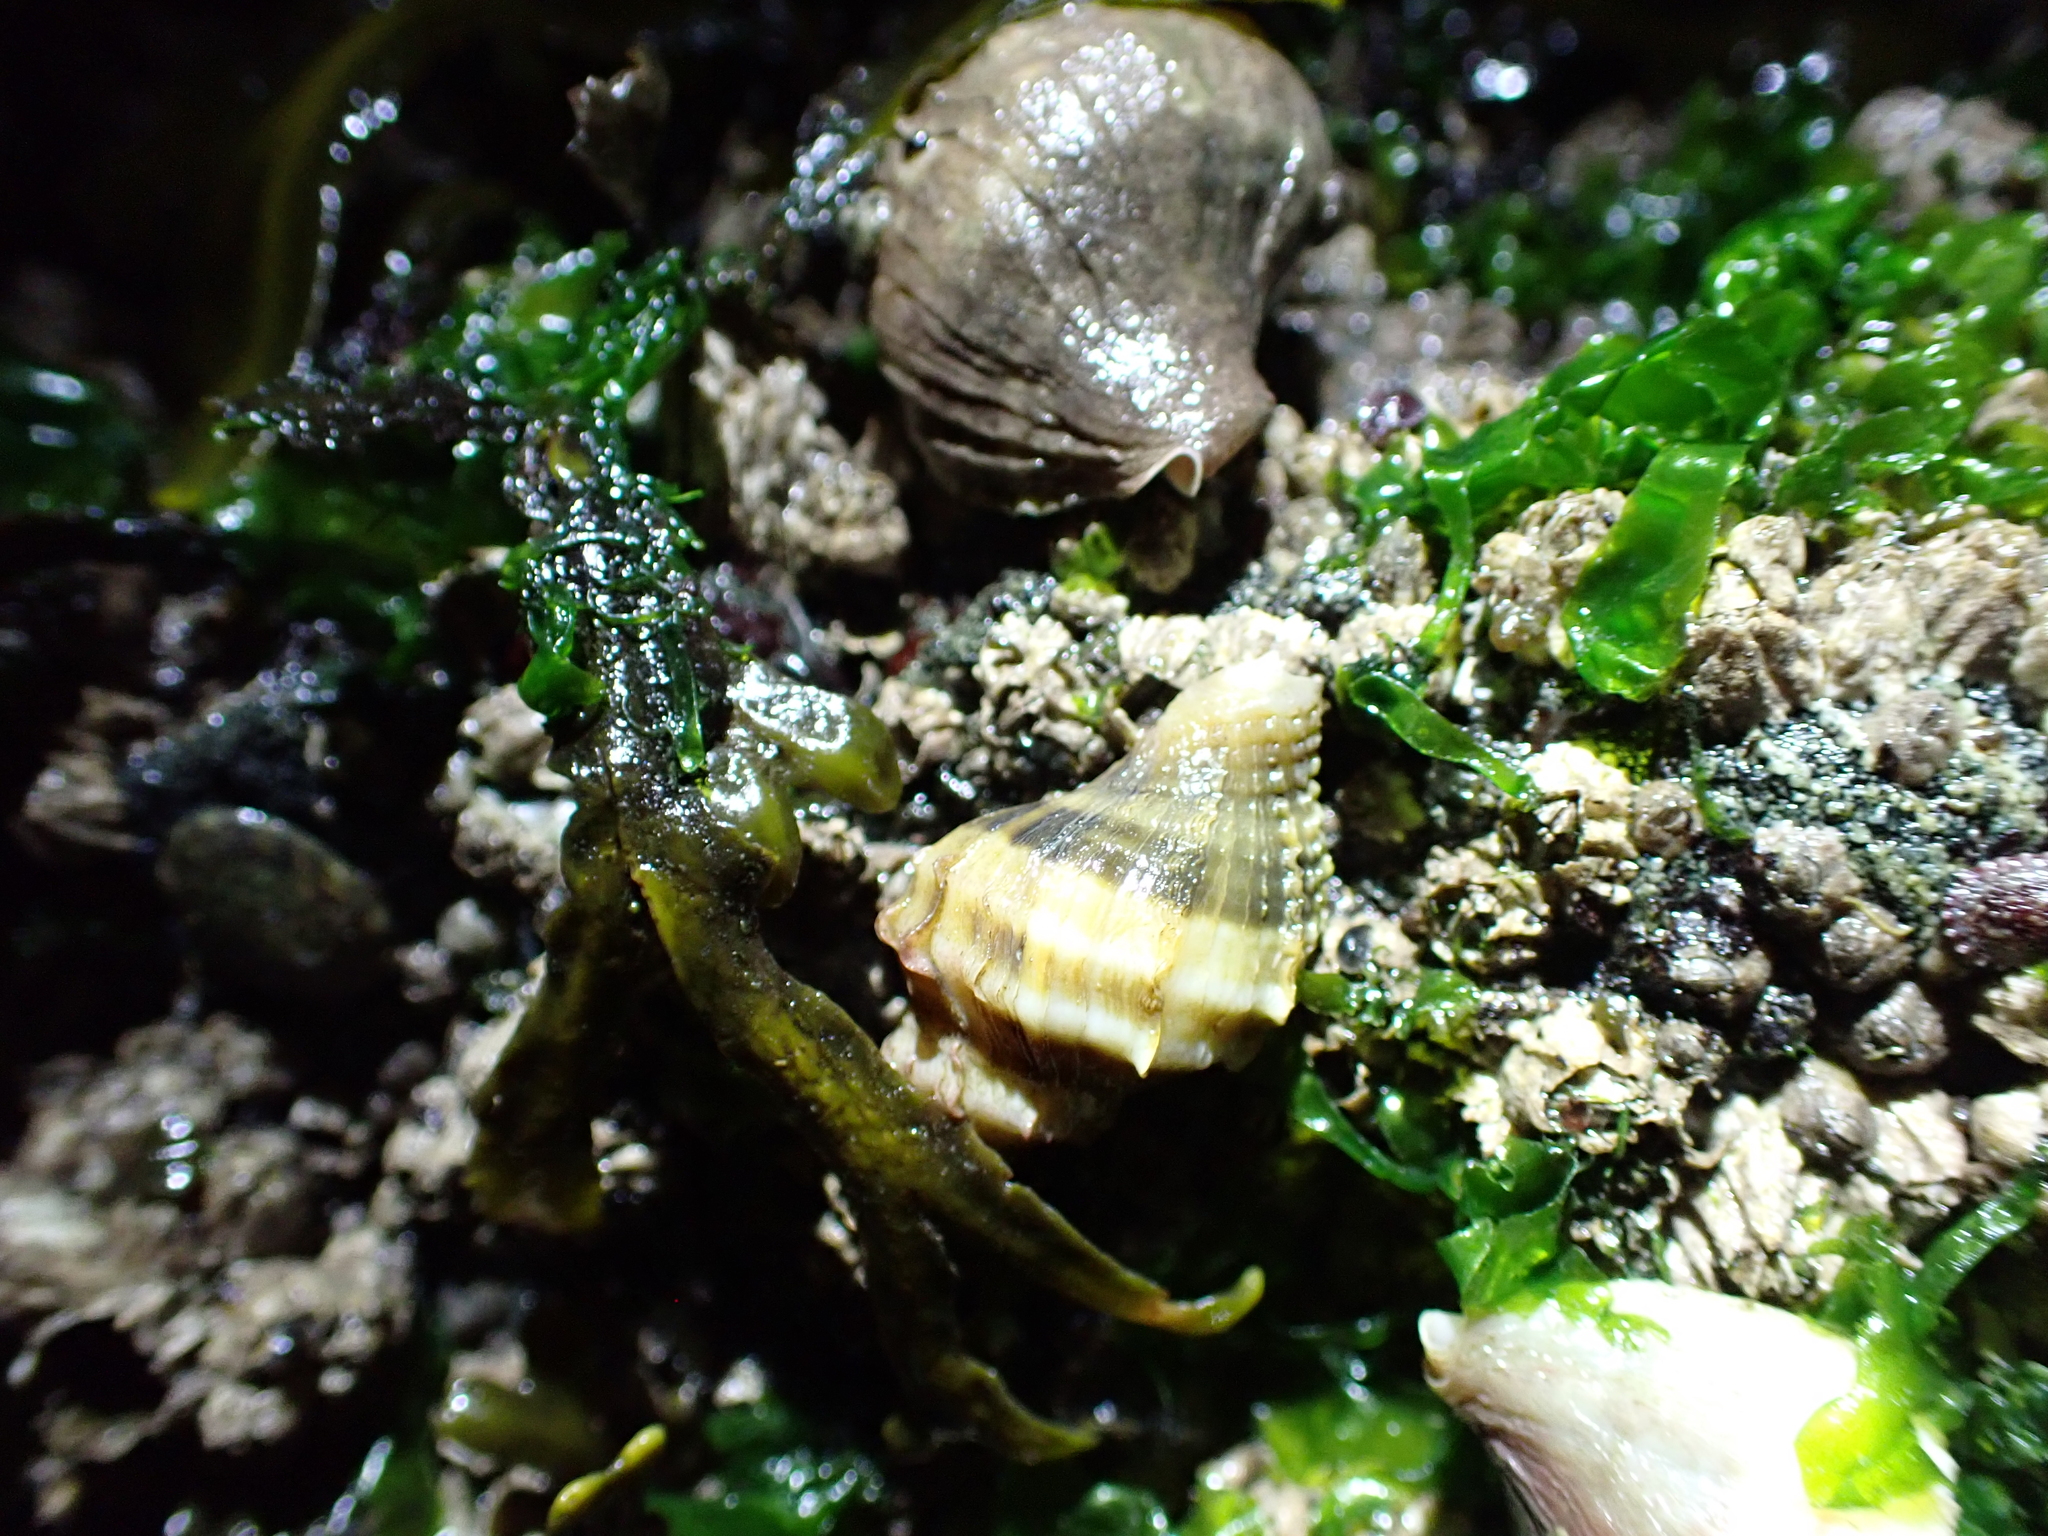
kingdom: Animalia
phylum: Mollusca
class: Gastropoda
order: Neogastropoda
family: Muricidae
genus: Nucella
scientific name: Nucella lamellosa
